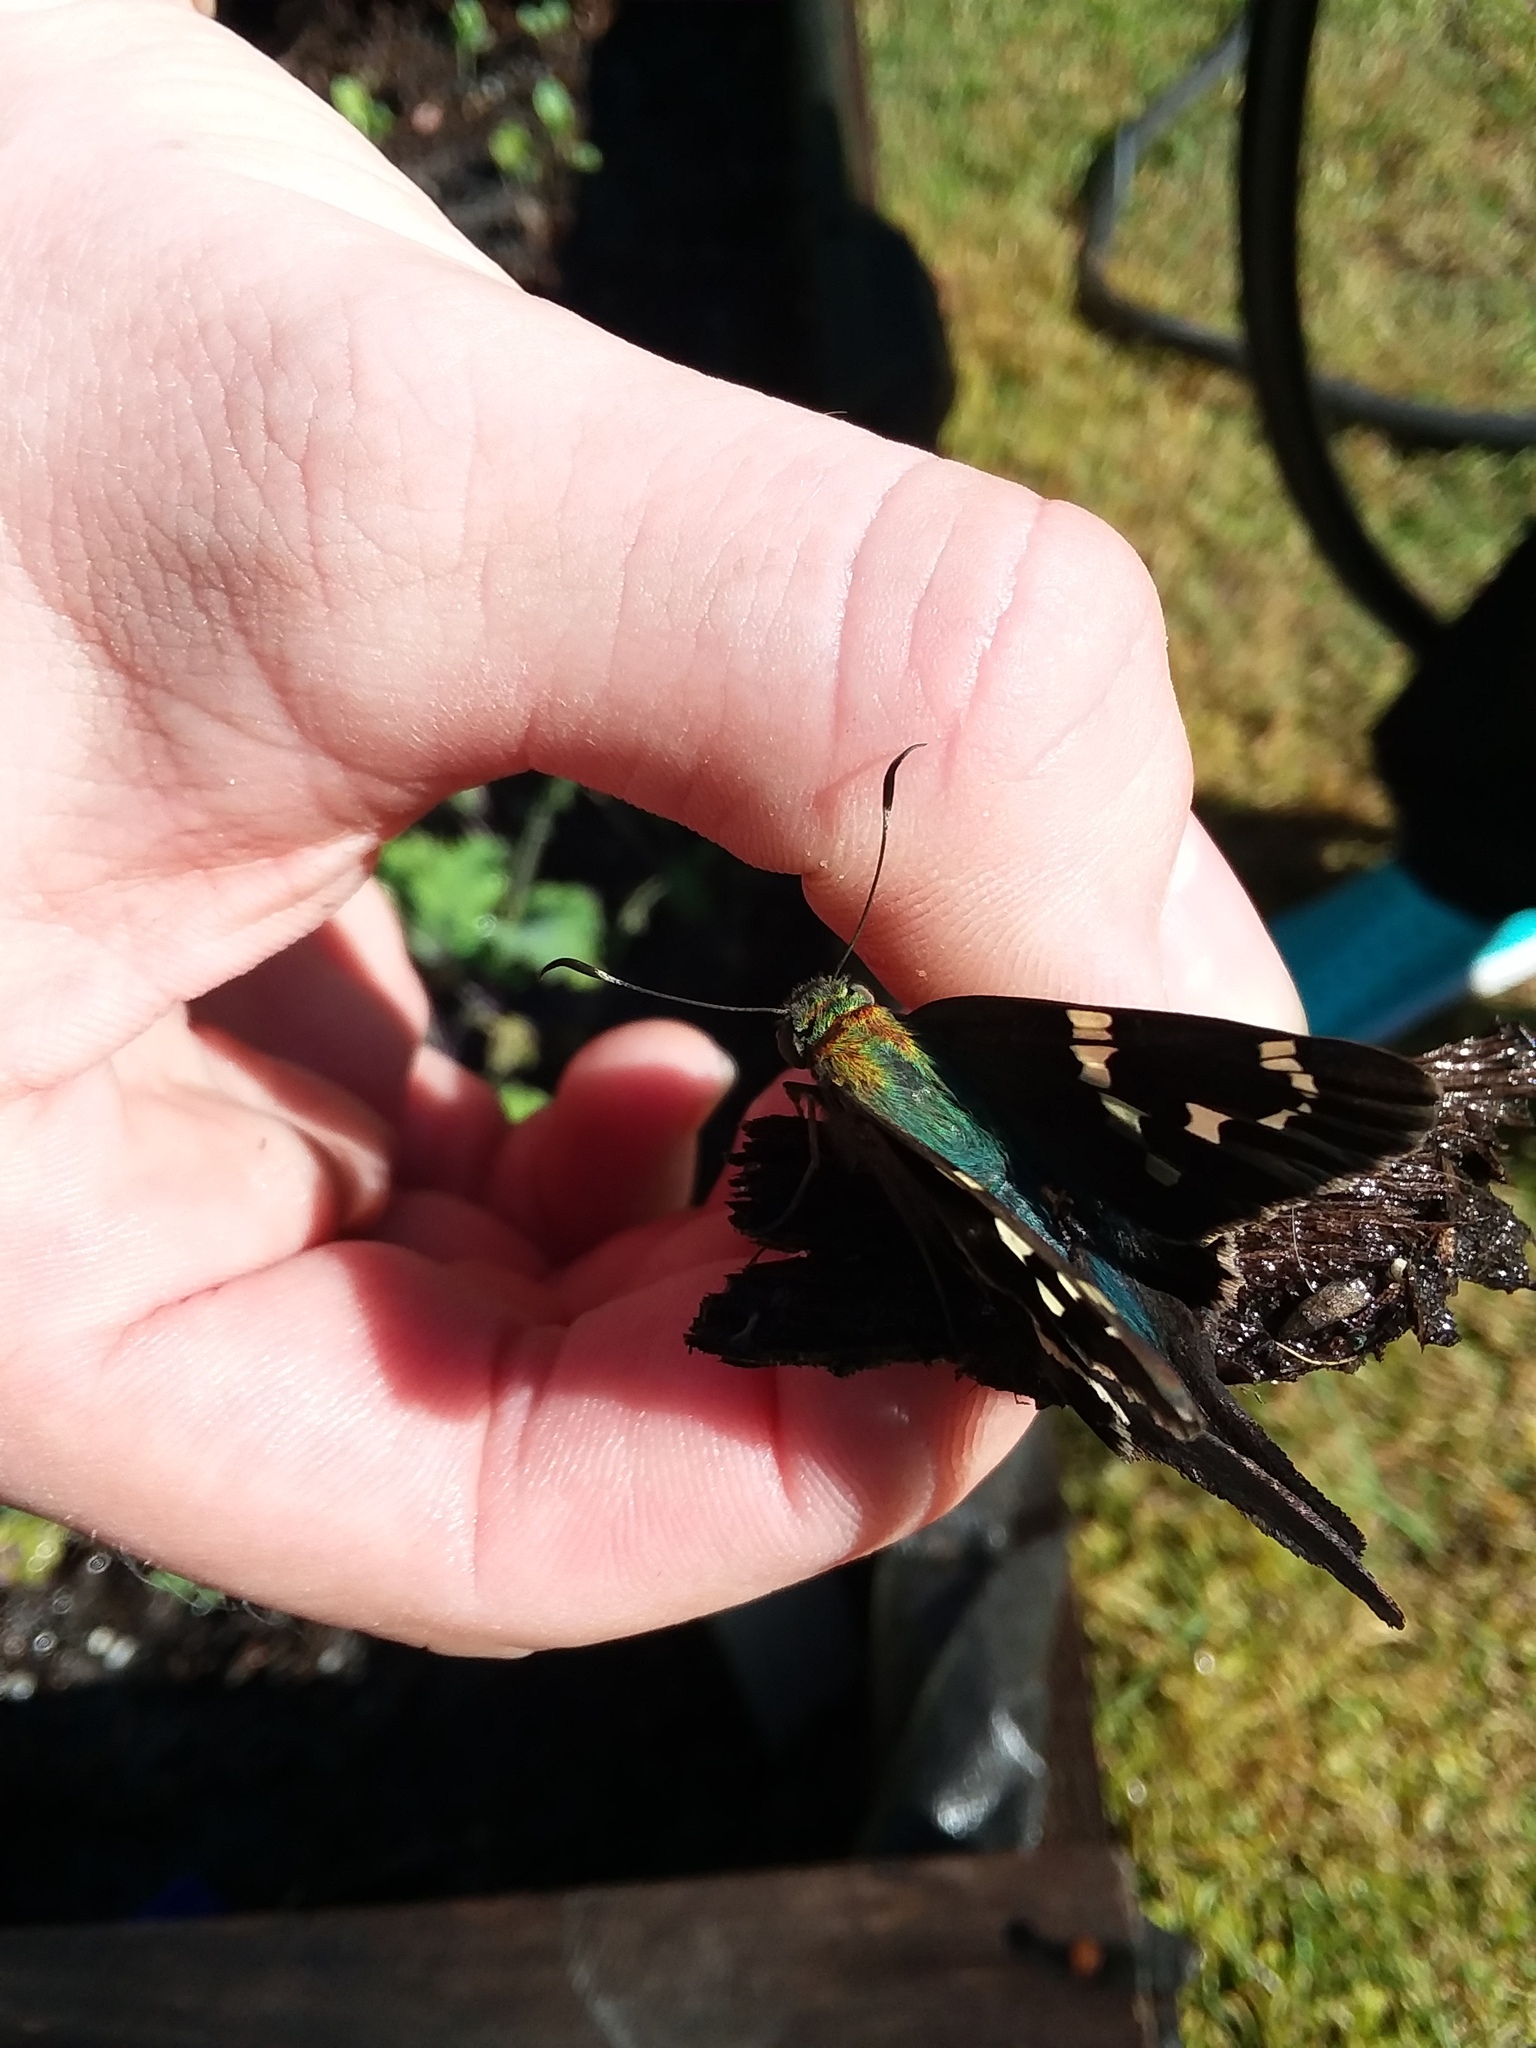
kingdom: Animalia
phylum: Arthropoda
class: Insecta
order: Lepidoptera
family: Hesperiidae
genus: Urbanus
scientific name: Urbanus proteus
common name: Long-tailed skipper
